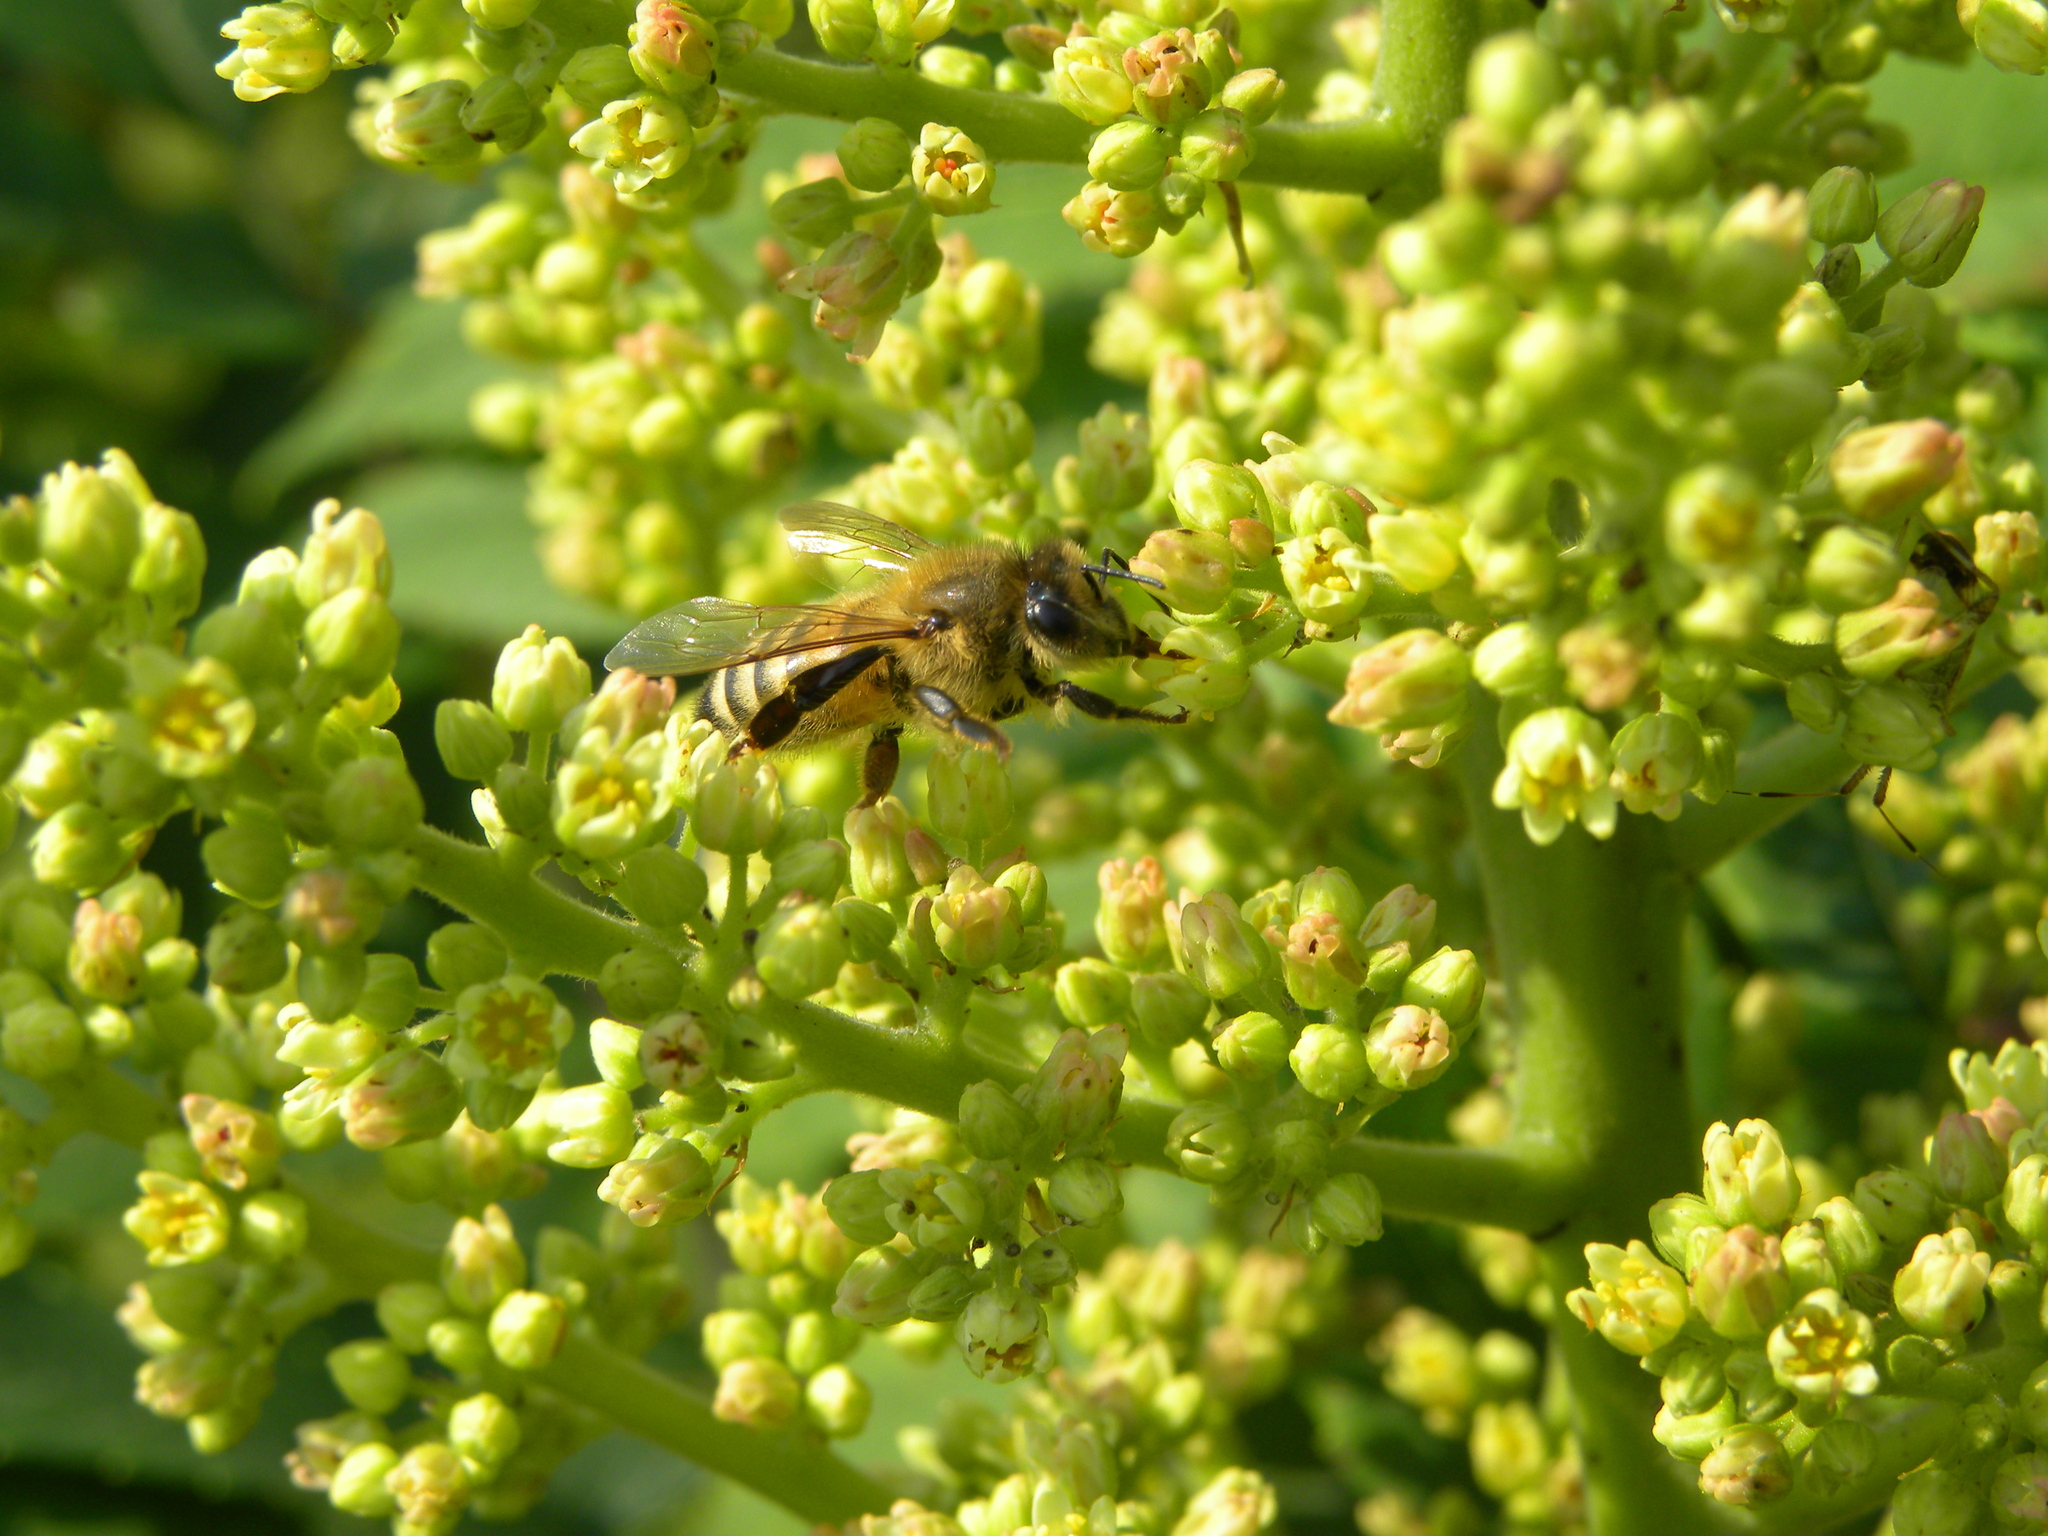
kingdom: Animalia
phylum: Arthropoda
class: Insecta
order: Hymenoptera
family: Apidae
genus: Apis
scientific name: Apis mellifera
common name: Honey bee
